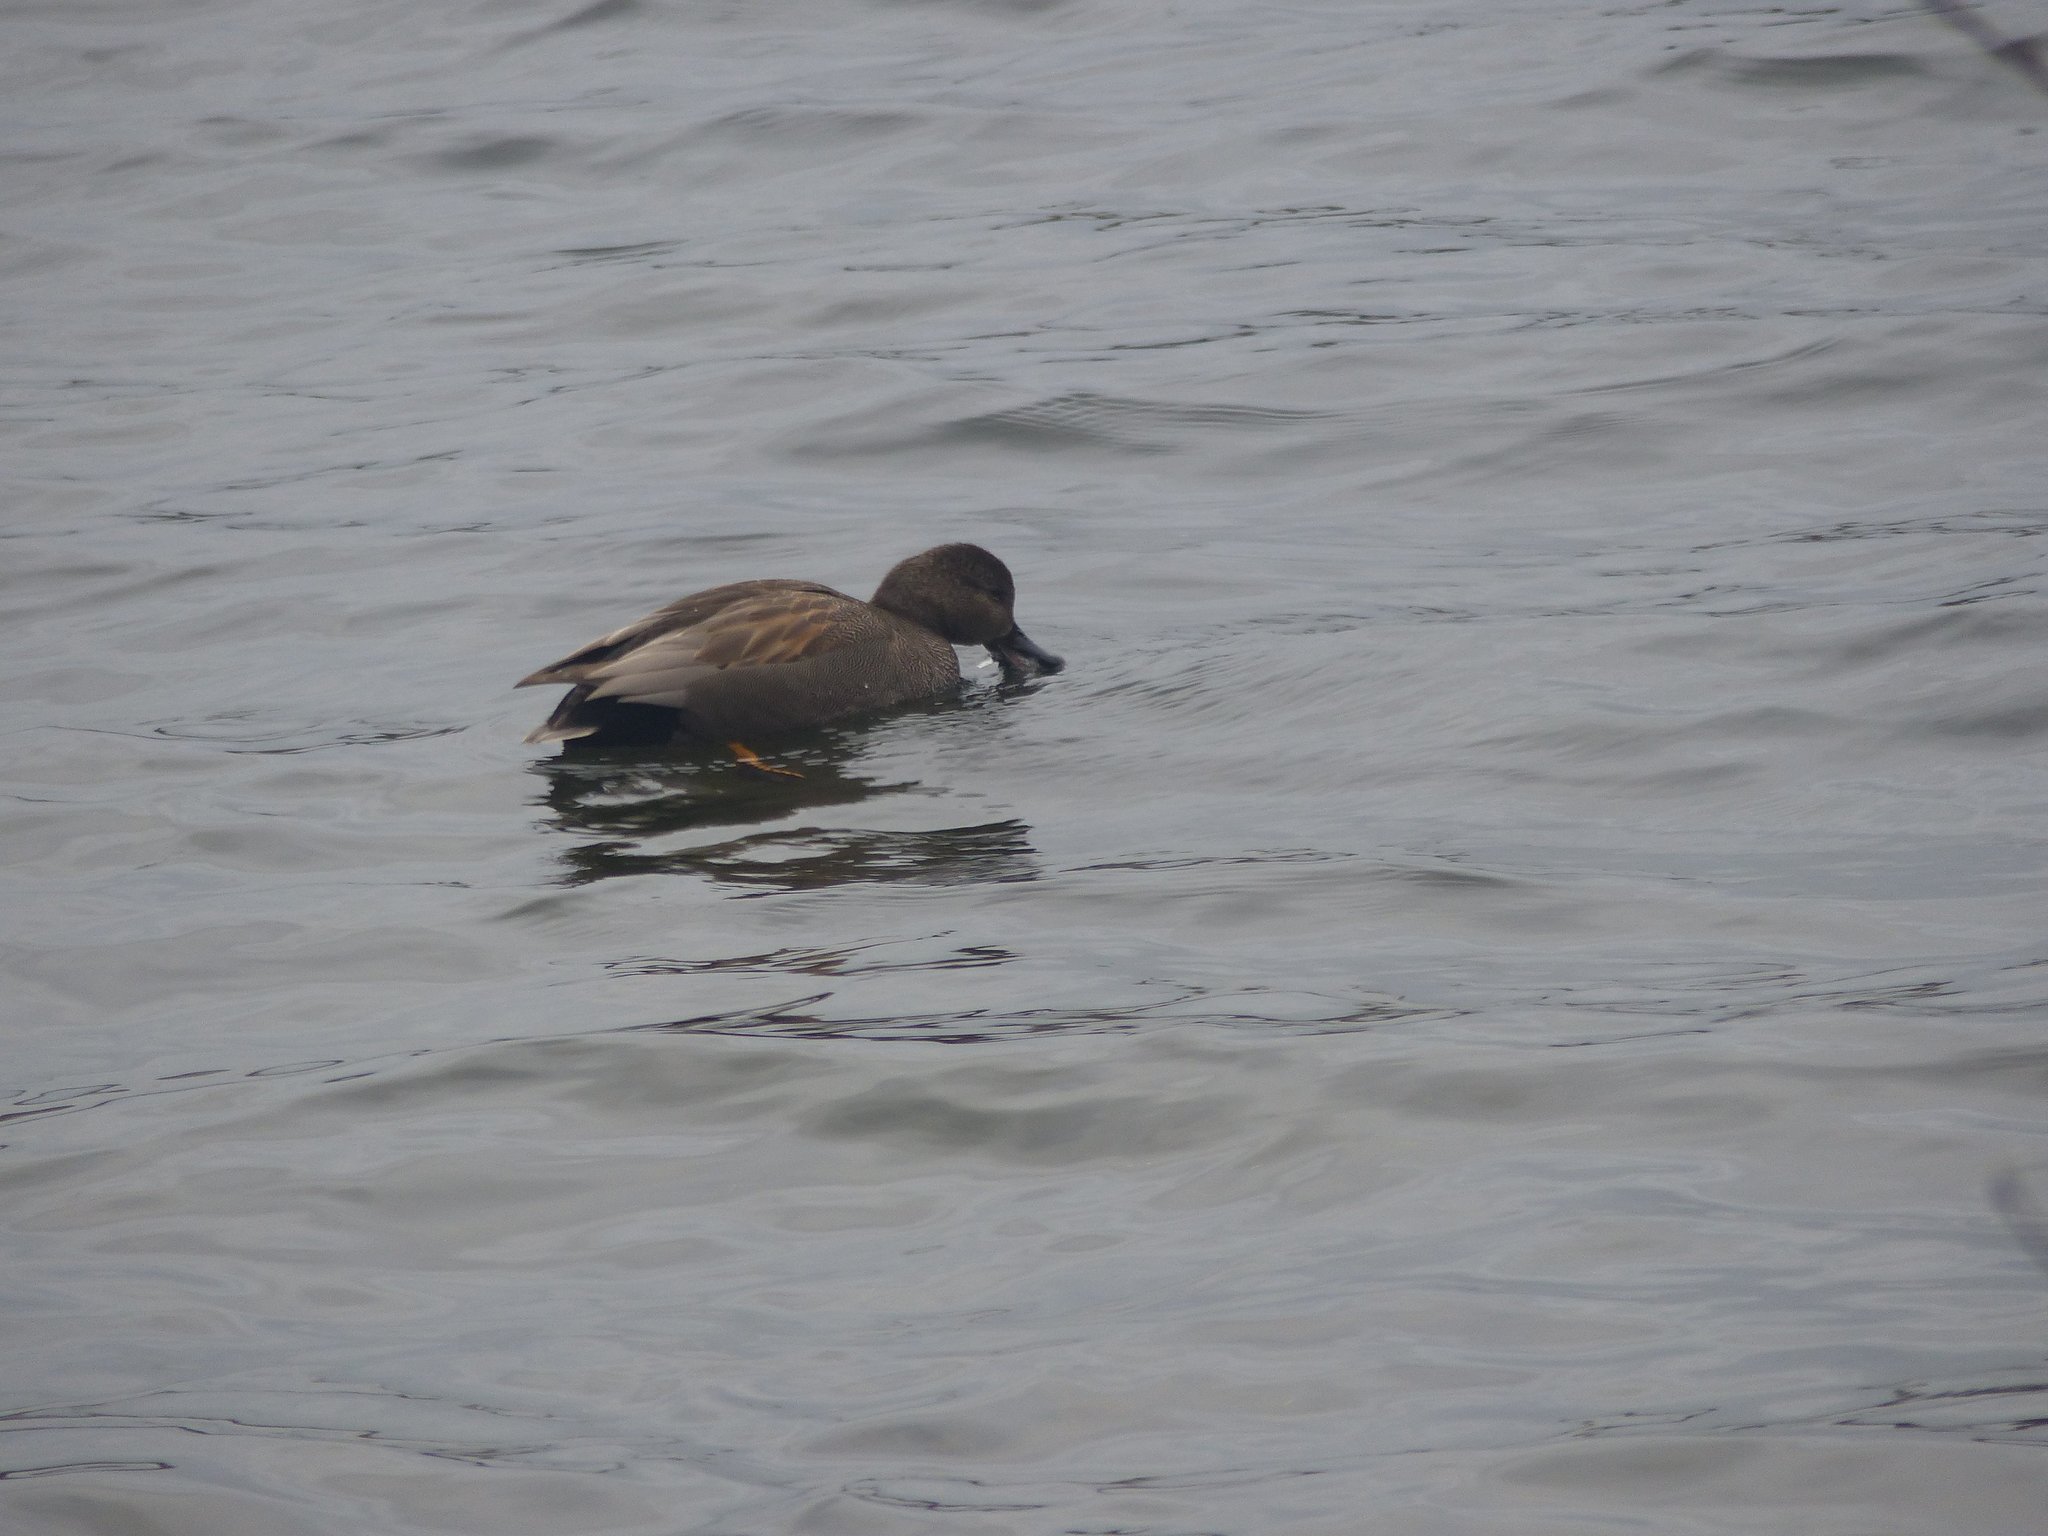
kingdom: Animalia
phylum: Chordata
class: Aves
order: Anseriformes
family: Anatidae
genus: Mareca
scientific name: Mareca strepera
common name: Gadwall
